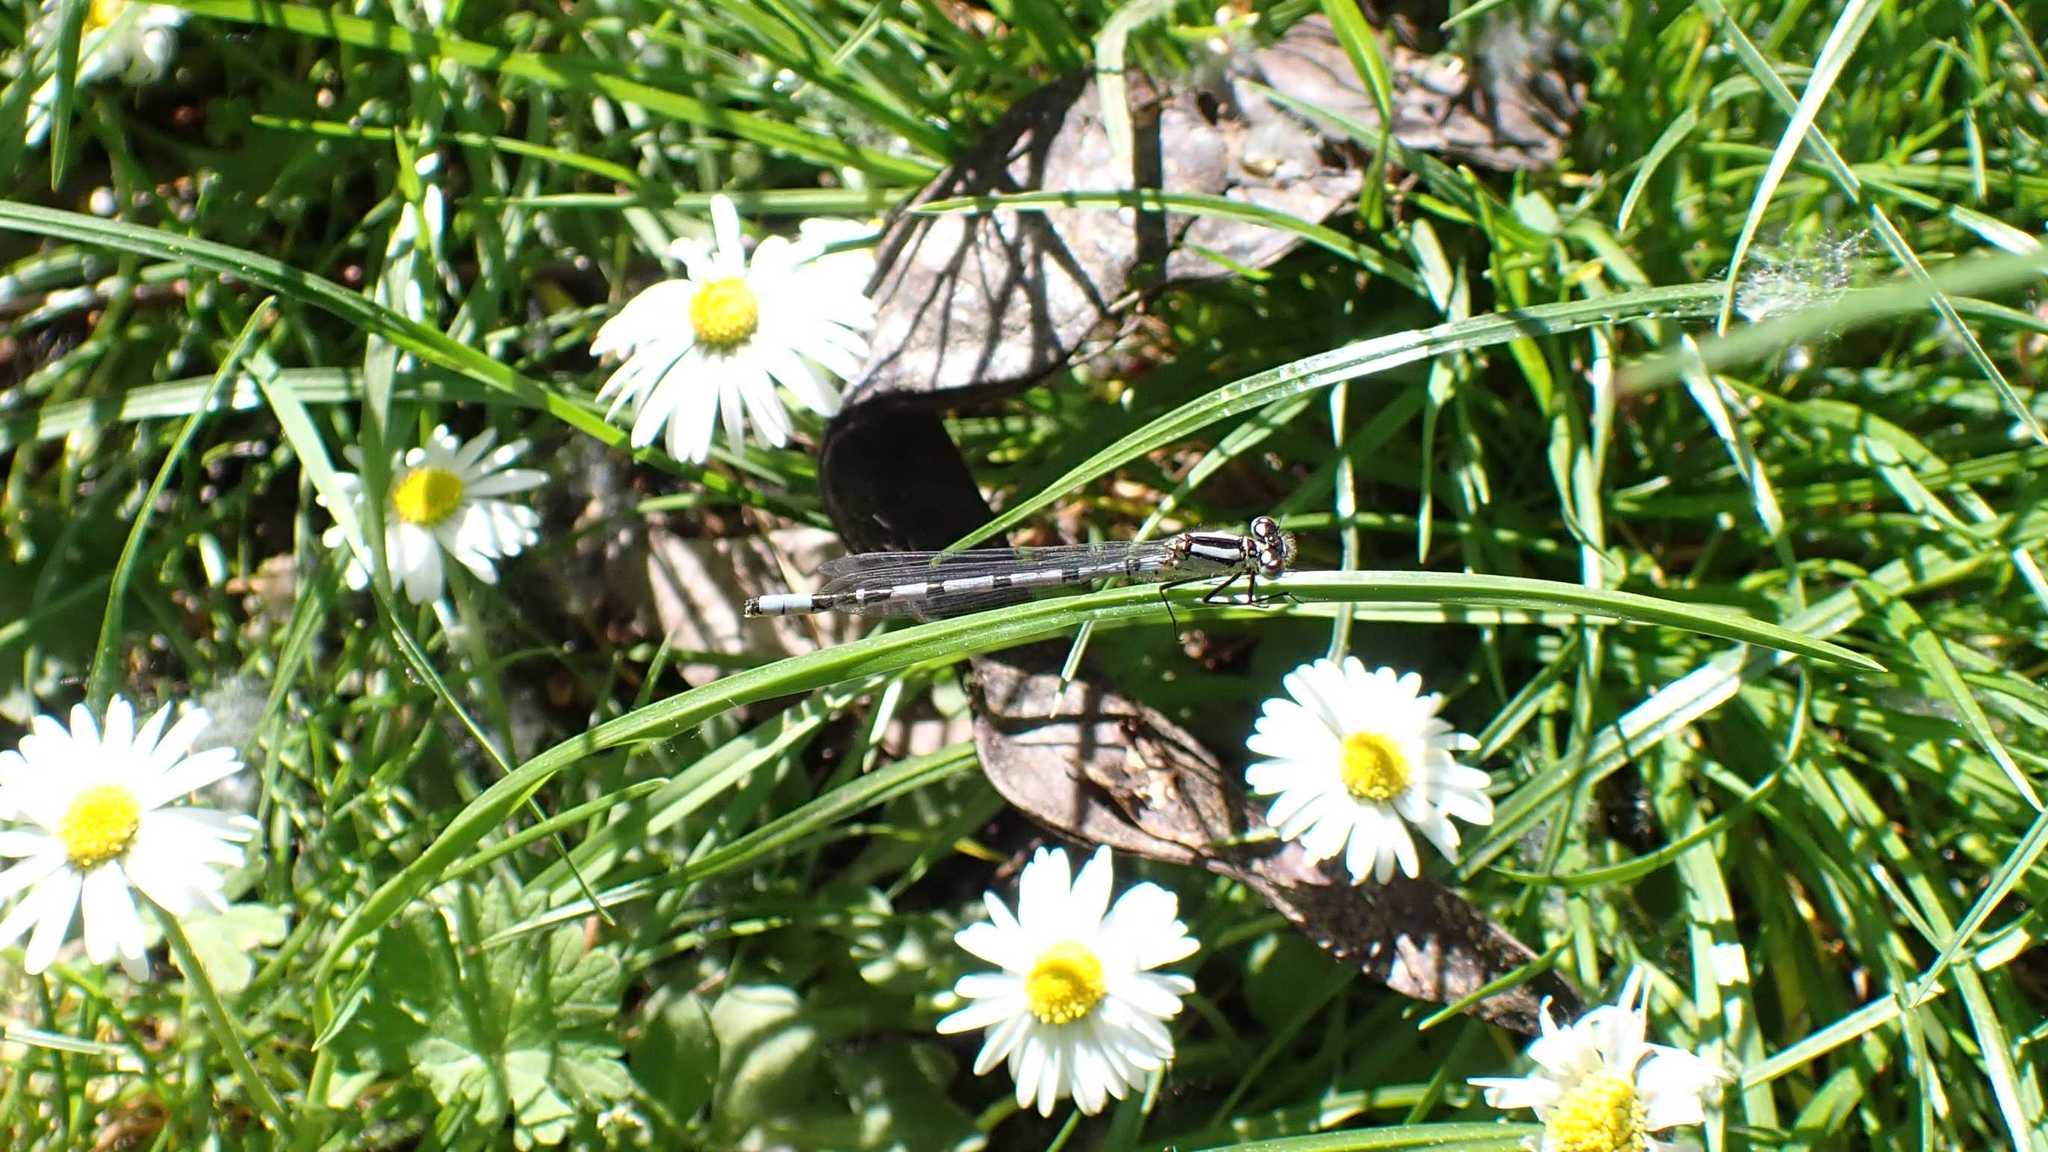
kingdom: Animalia
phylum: Arthropoda
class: Insecta
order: Odonata
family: Coenagrionidae
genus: Enallagma
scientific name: Enallagma cyathigerum
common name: Common blue damselfly
